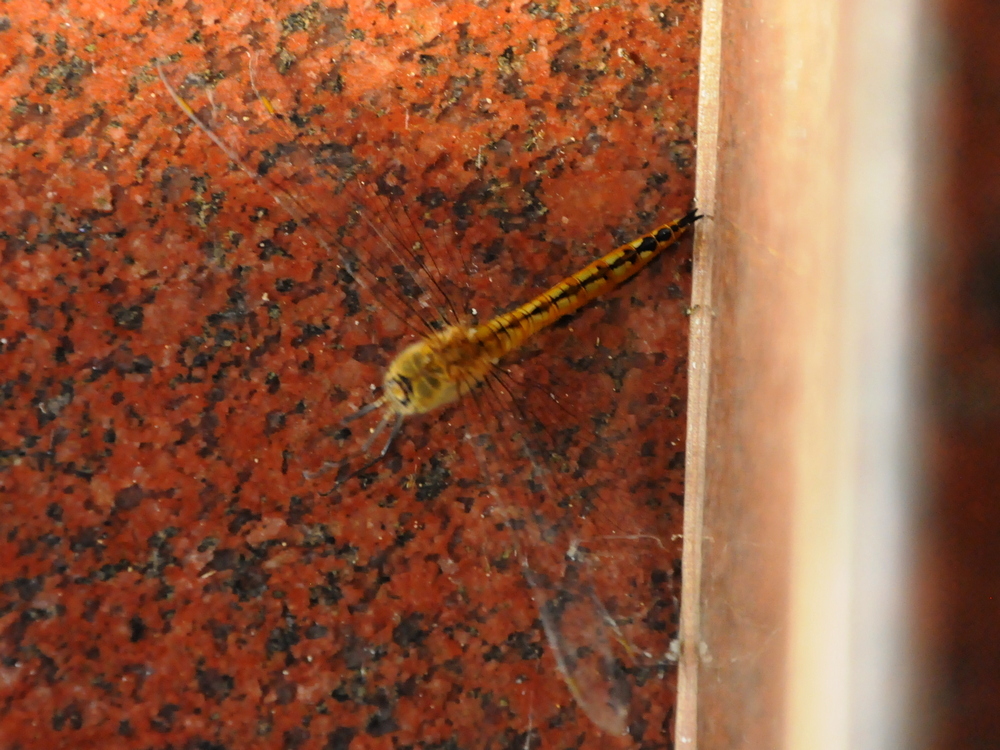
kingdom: Animalia
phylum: Arthropoda
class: Insecta
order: Odonata
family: Libellulidae
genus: Pantala
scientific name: Pantala flavescens
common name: Wandering glider
